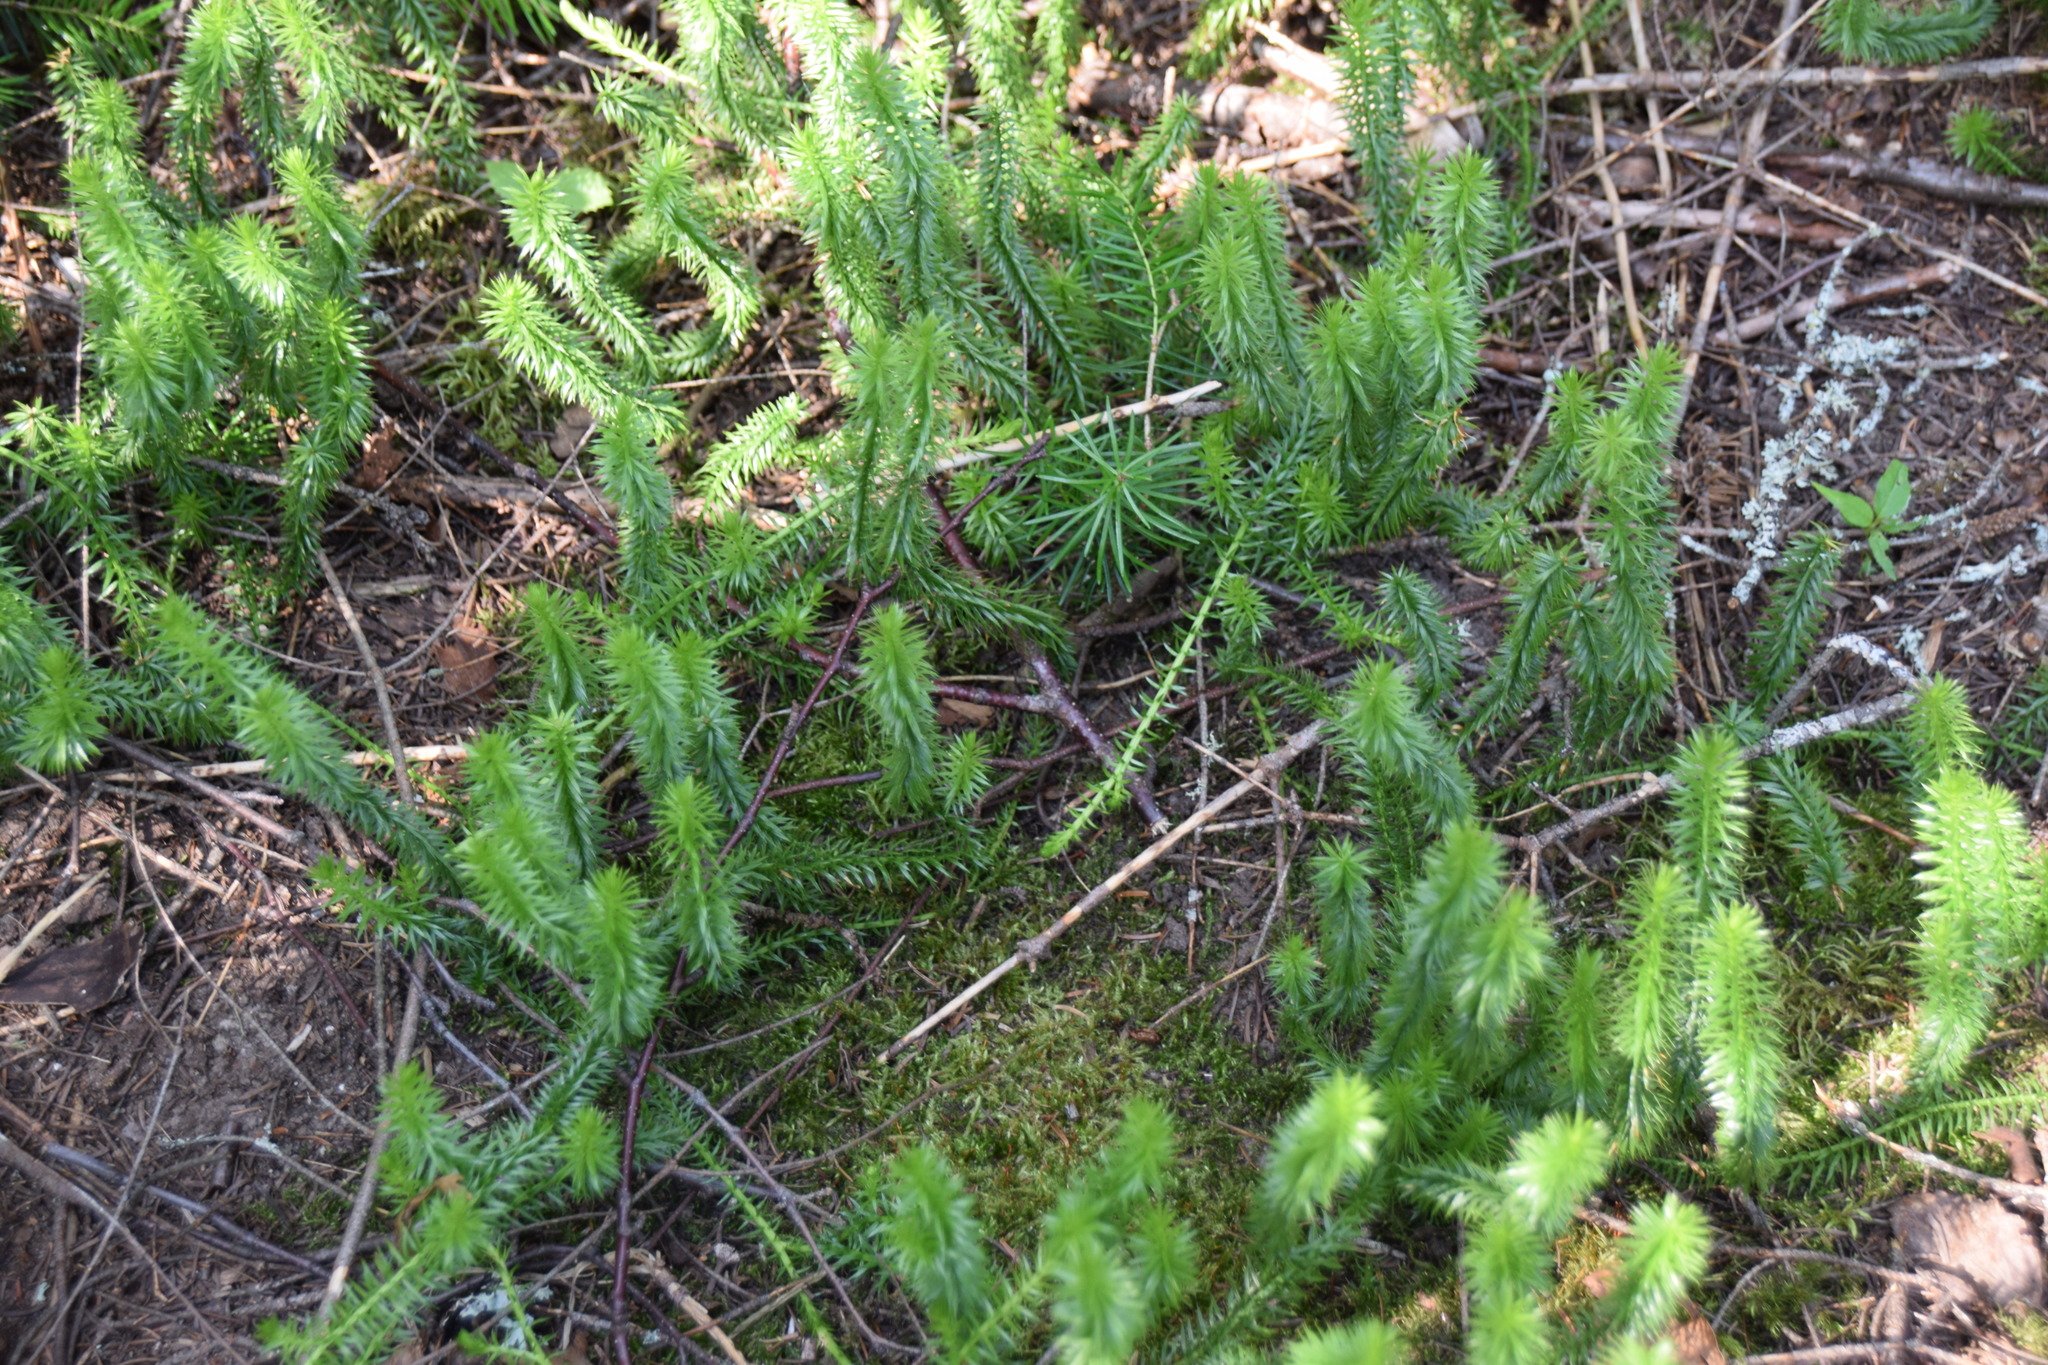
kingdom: Plantae
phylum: Tracheophyta
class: Lycopodiopsida
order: Lycopodiales
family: Lycopodiaceae
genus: Spinulum
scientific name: Spinulum annotinum
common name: Interrupted club-moss
